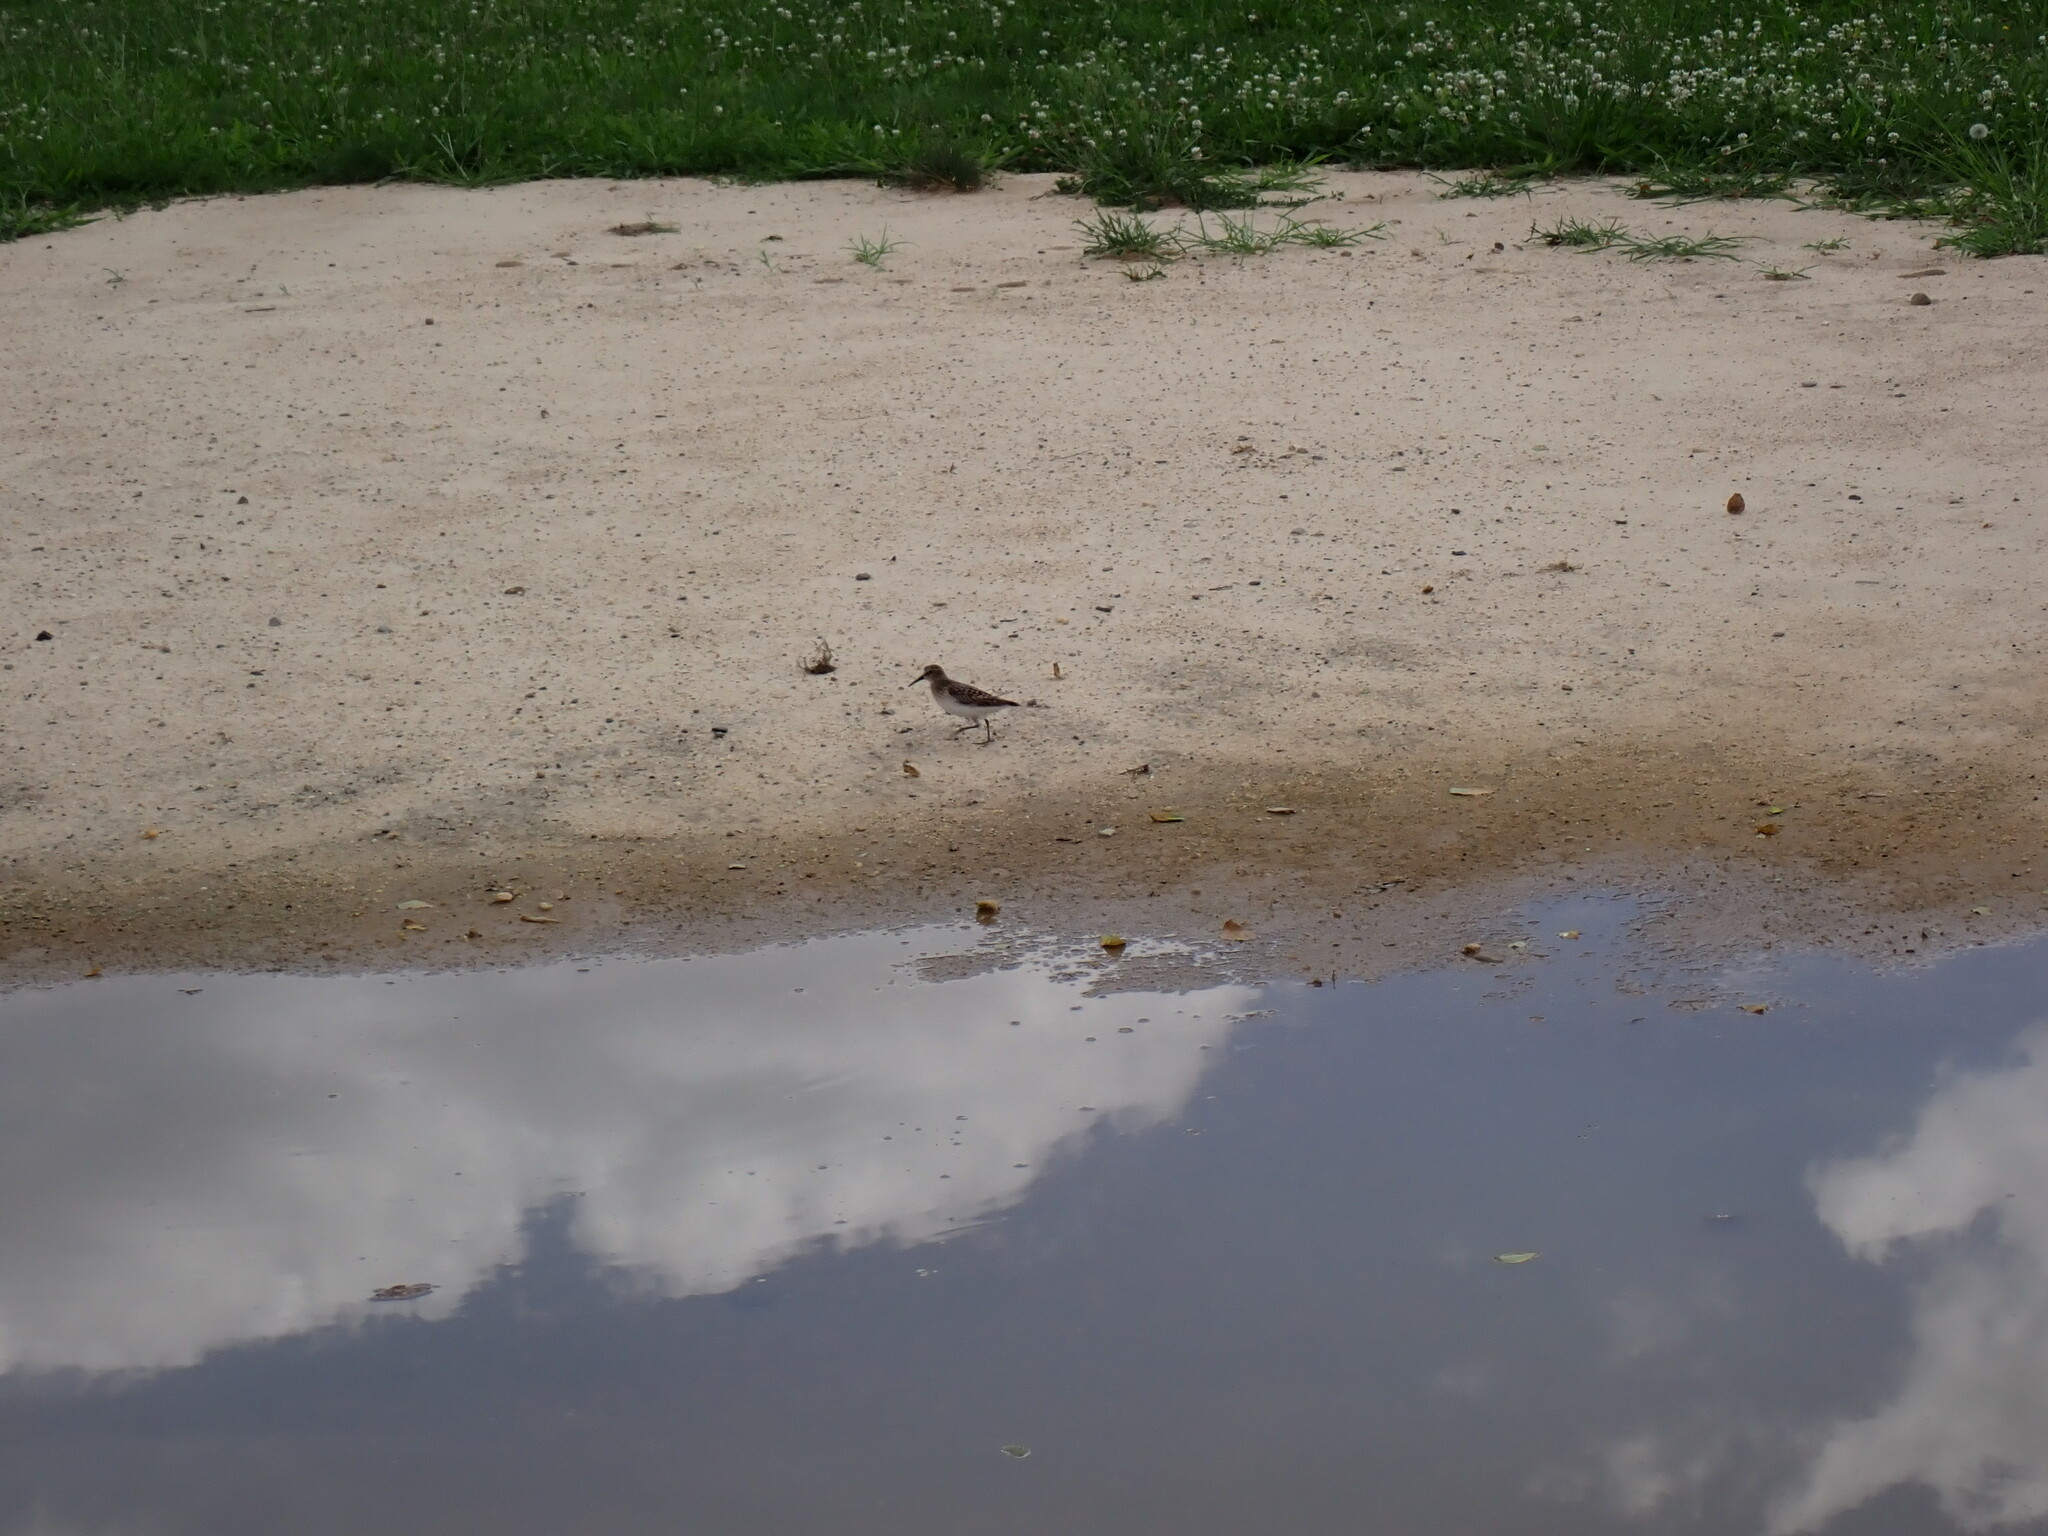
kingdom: Animalia
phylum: Chordata
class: Aves
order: Charadriiformes
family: Scolopacidae
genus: Calidris
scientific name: Calidris minutilla
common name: Least sandpiper
